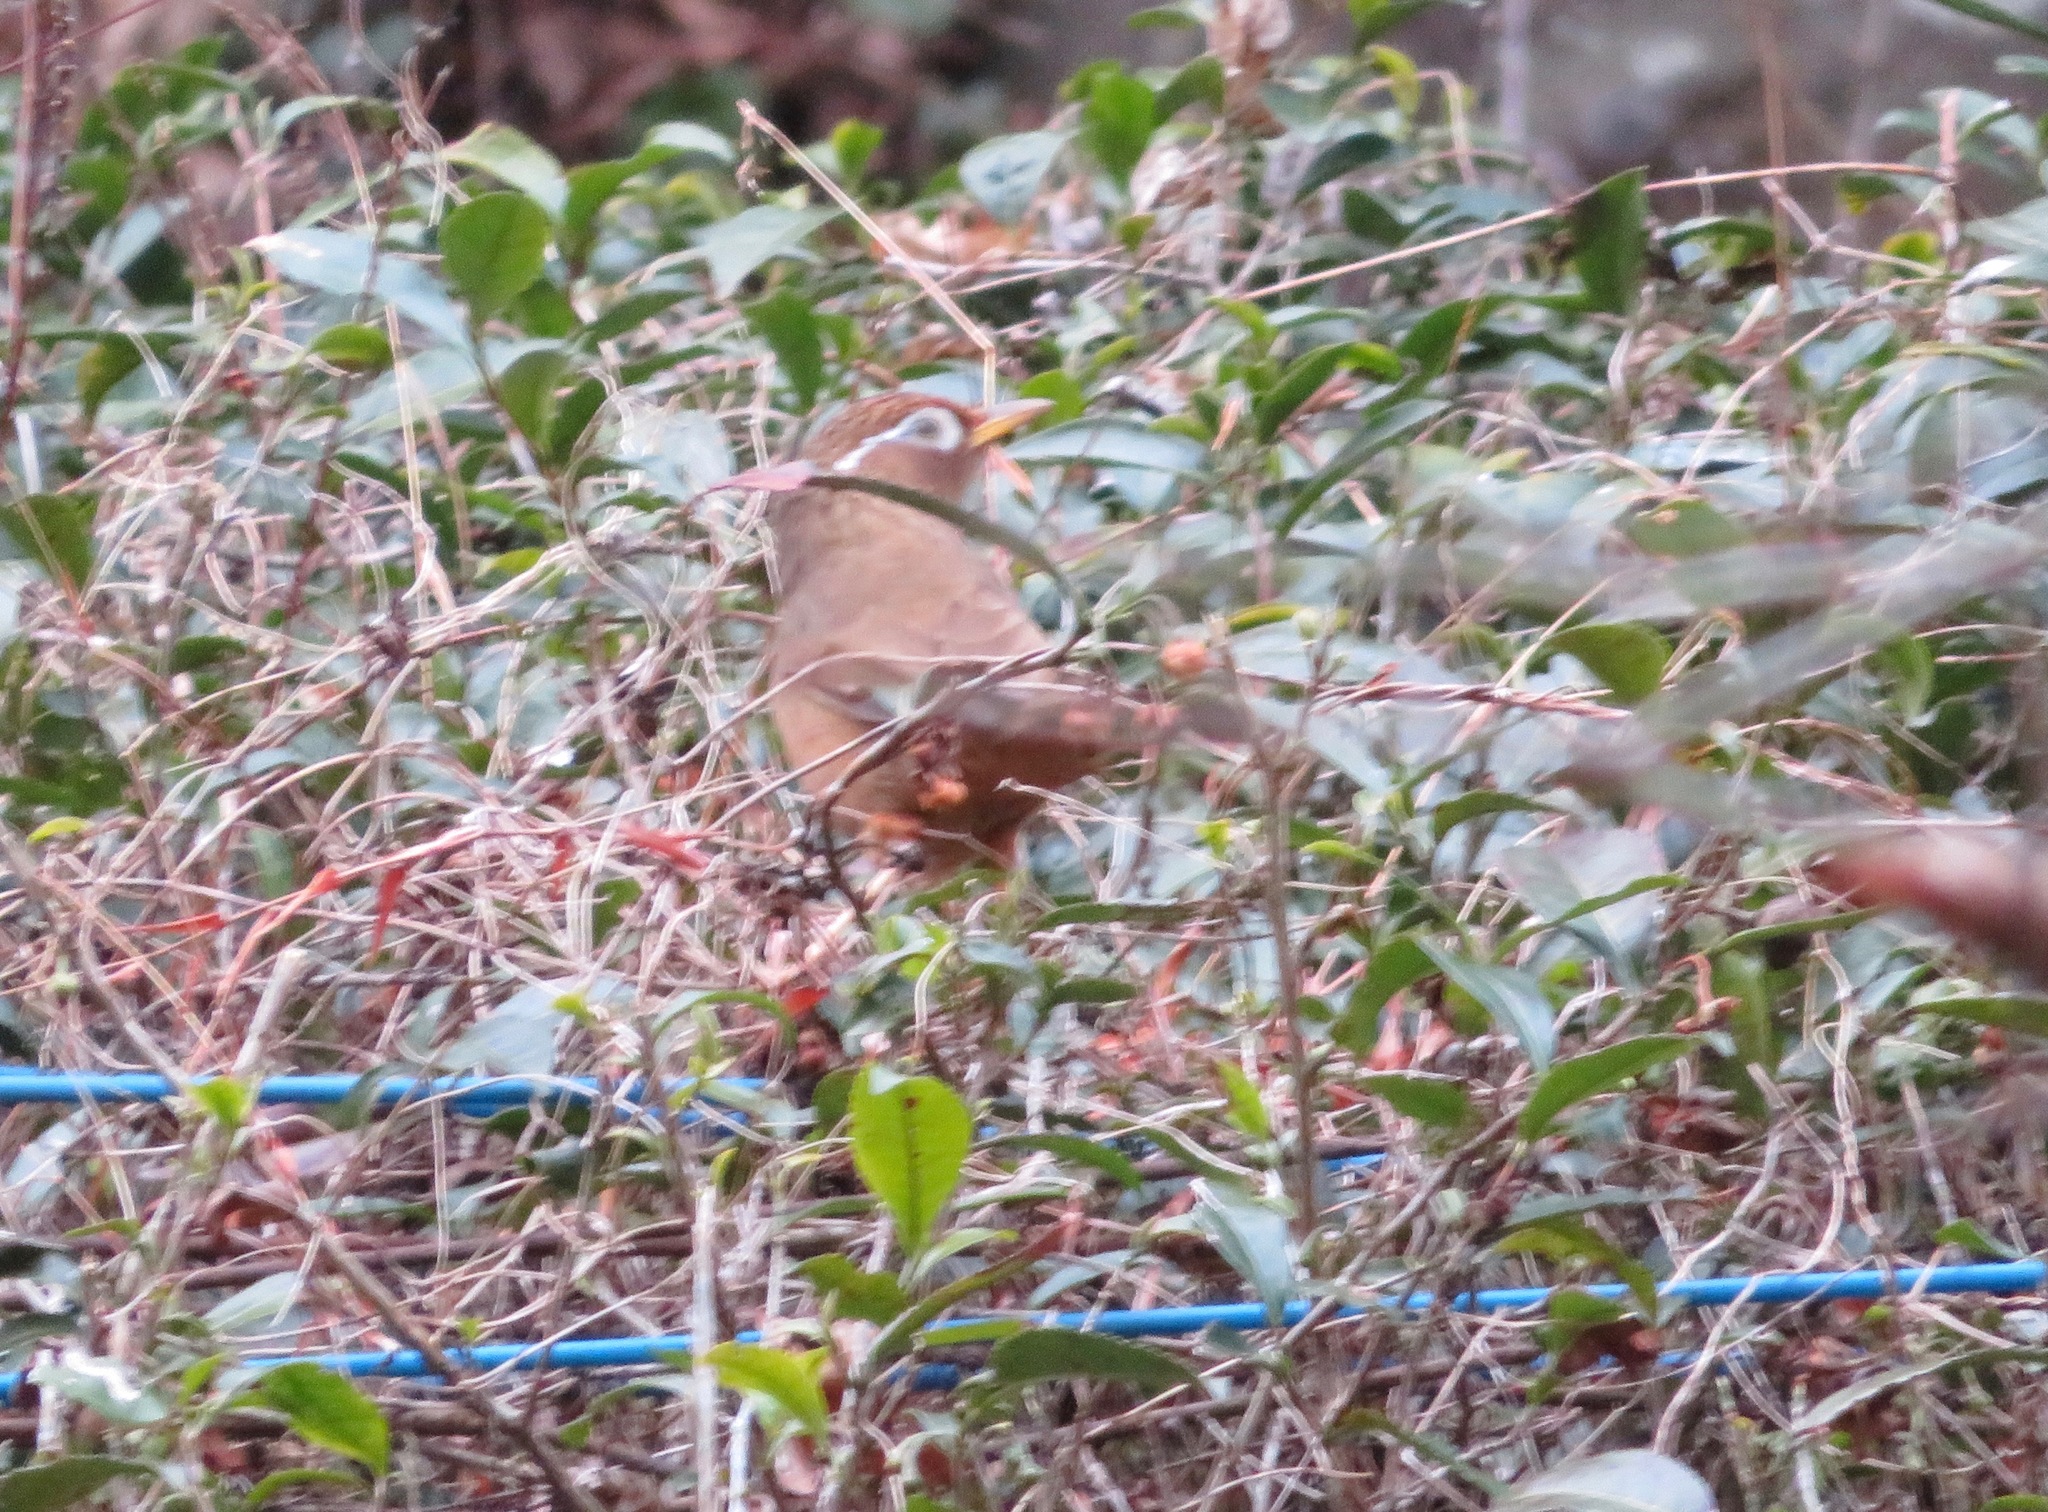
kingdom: Animalia
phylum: Chordata
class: Aves
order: Passeriformes
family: Leiothrichidae
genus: Garrulax
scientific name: Garrulax canorus
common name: Chinese hwamei
